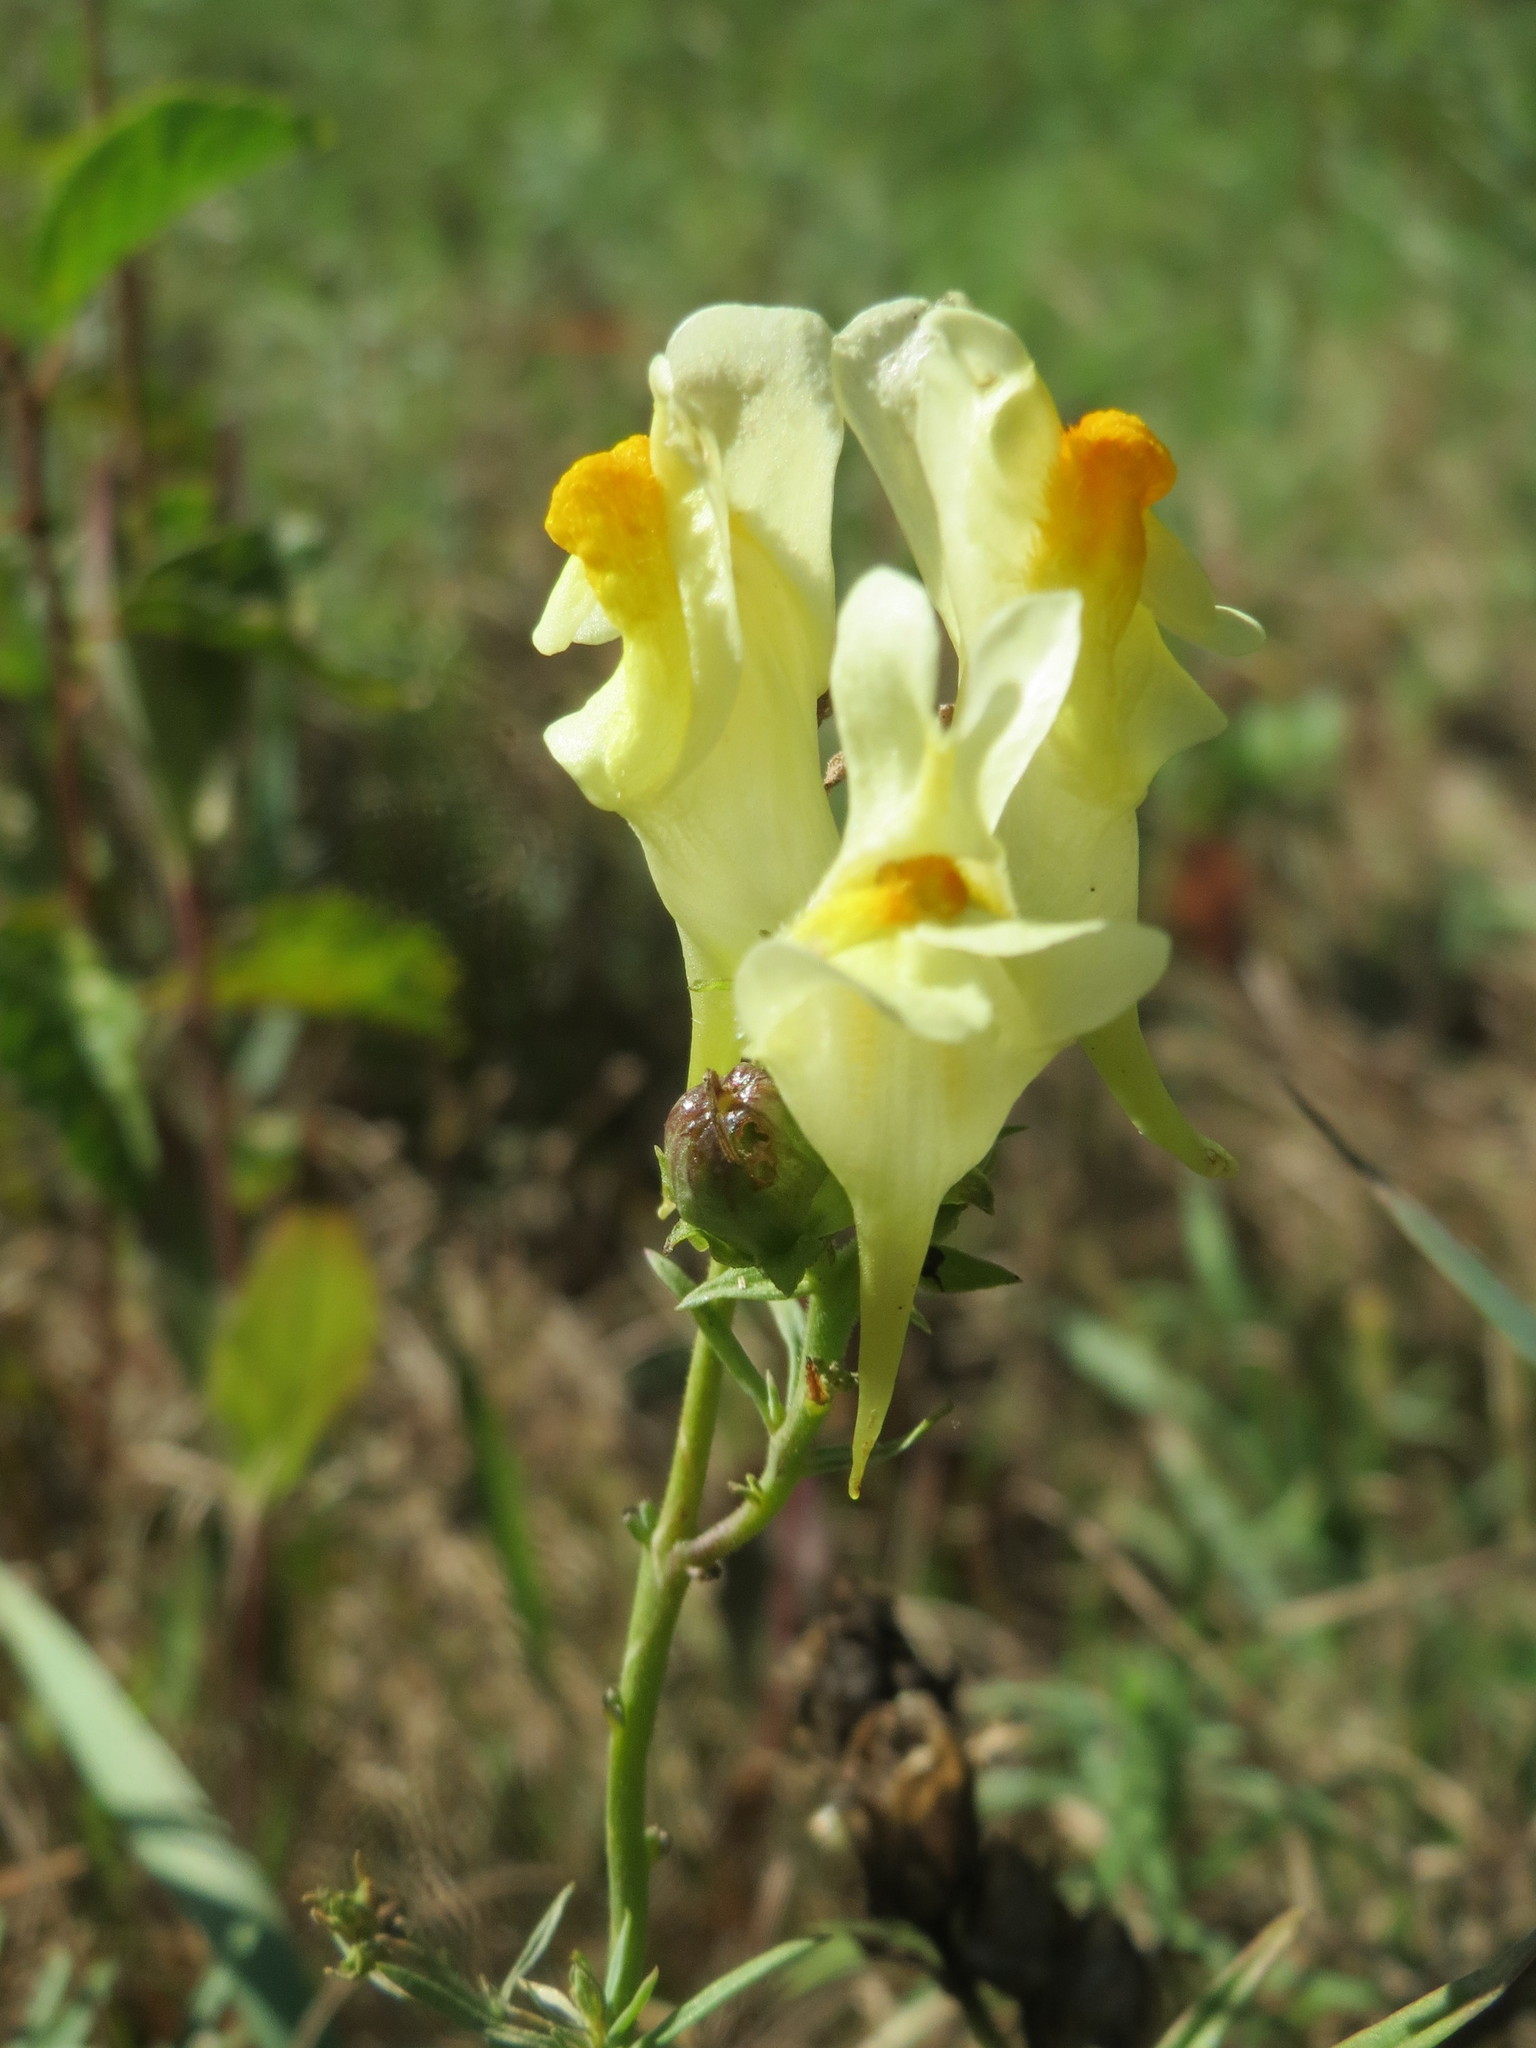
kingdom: Plantae
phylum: Tracheophyta
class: Magnoliopsida
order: Lamiales
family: Plantaginaceae
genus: Linaria
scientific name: Linaria vulgaris
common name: Butter and eggs
